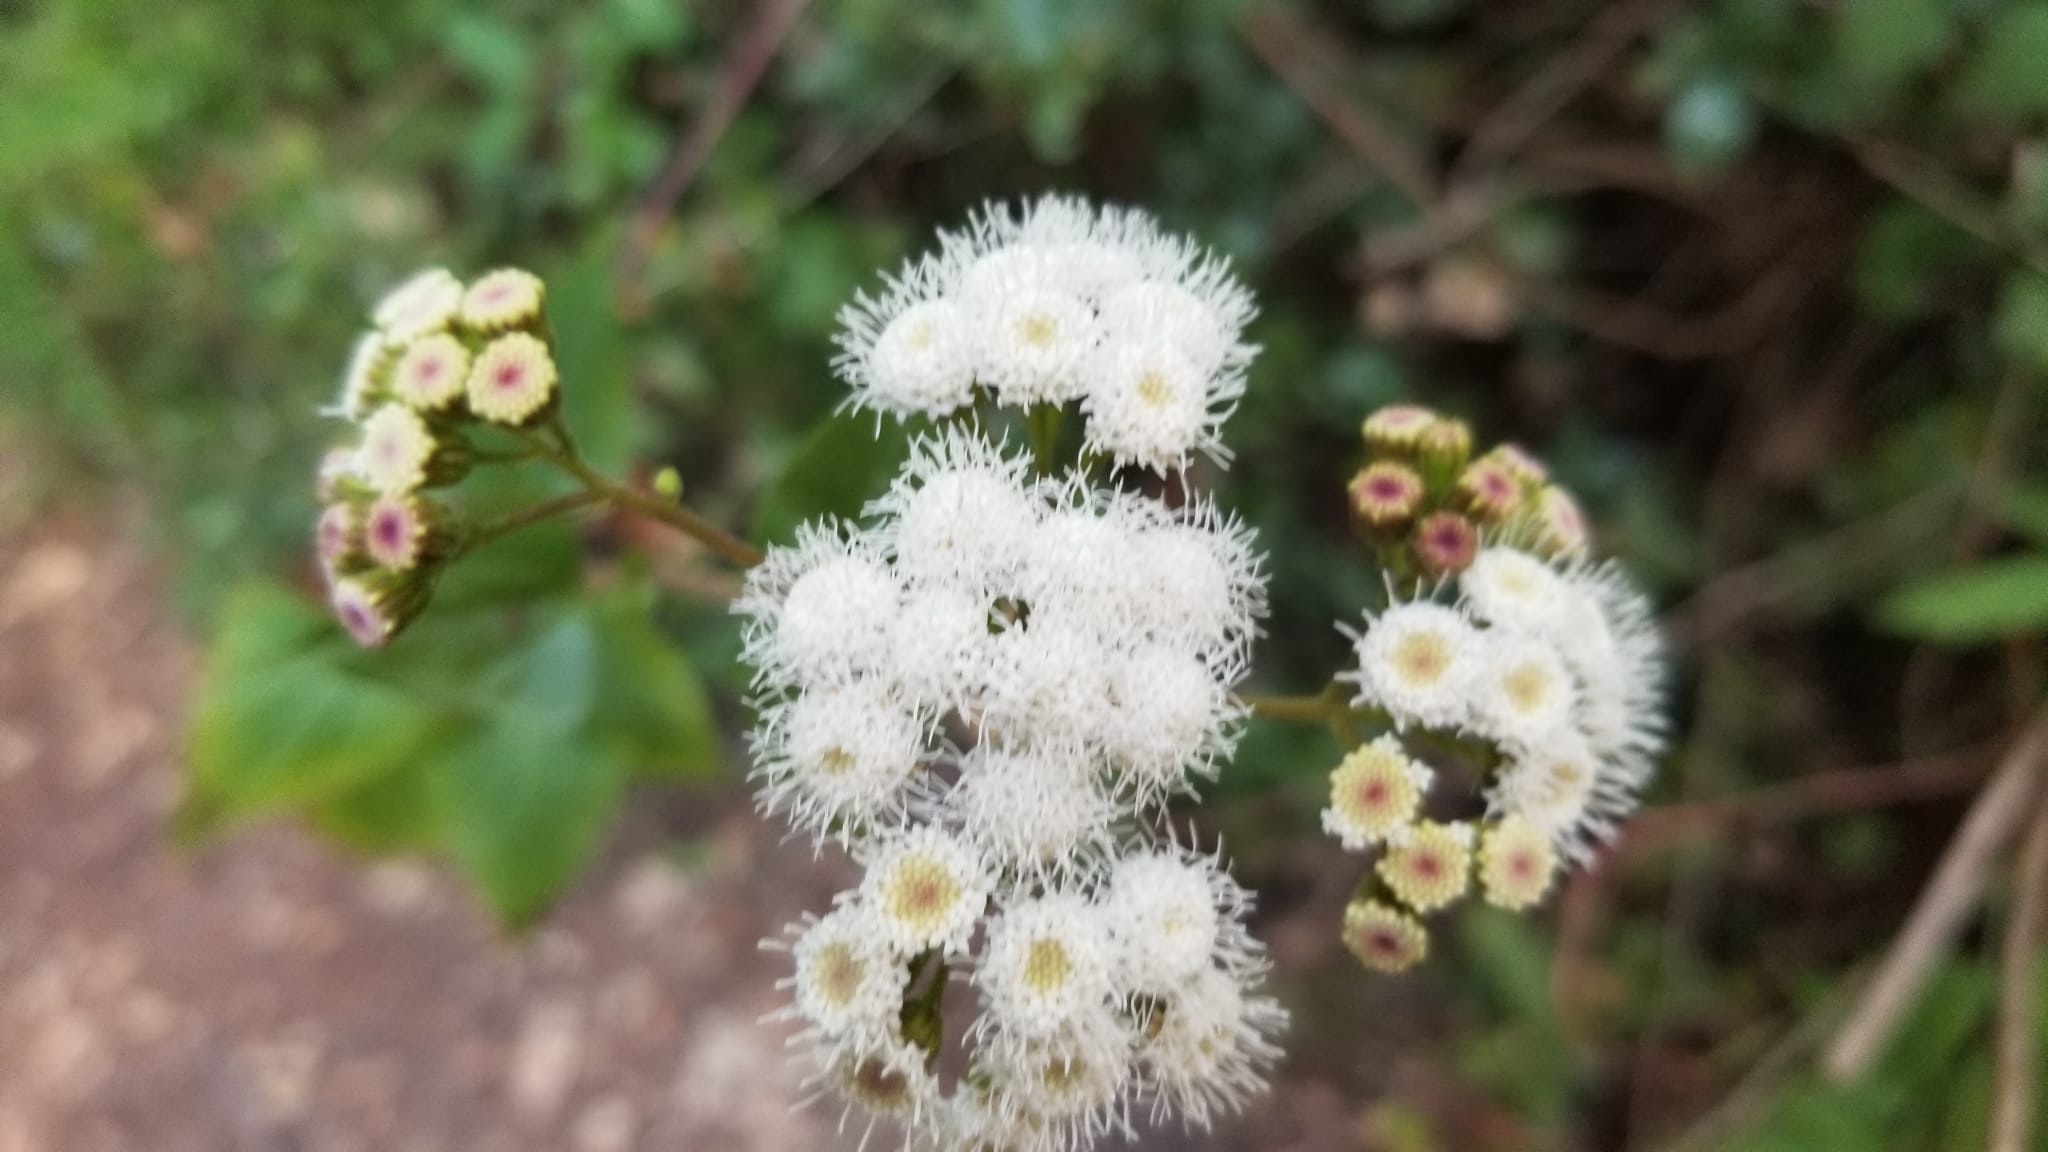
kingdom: Plantae
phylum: Tracheophyta
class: Magnoliopsida
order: Asterales
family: Asteraceae
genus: Ageratina
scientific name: Ageratina adenophora
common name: Sticky snakeroot
